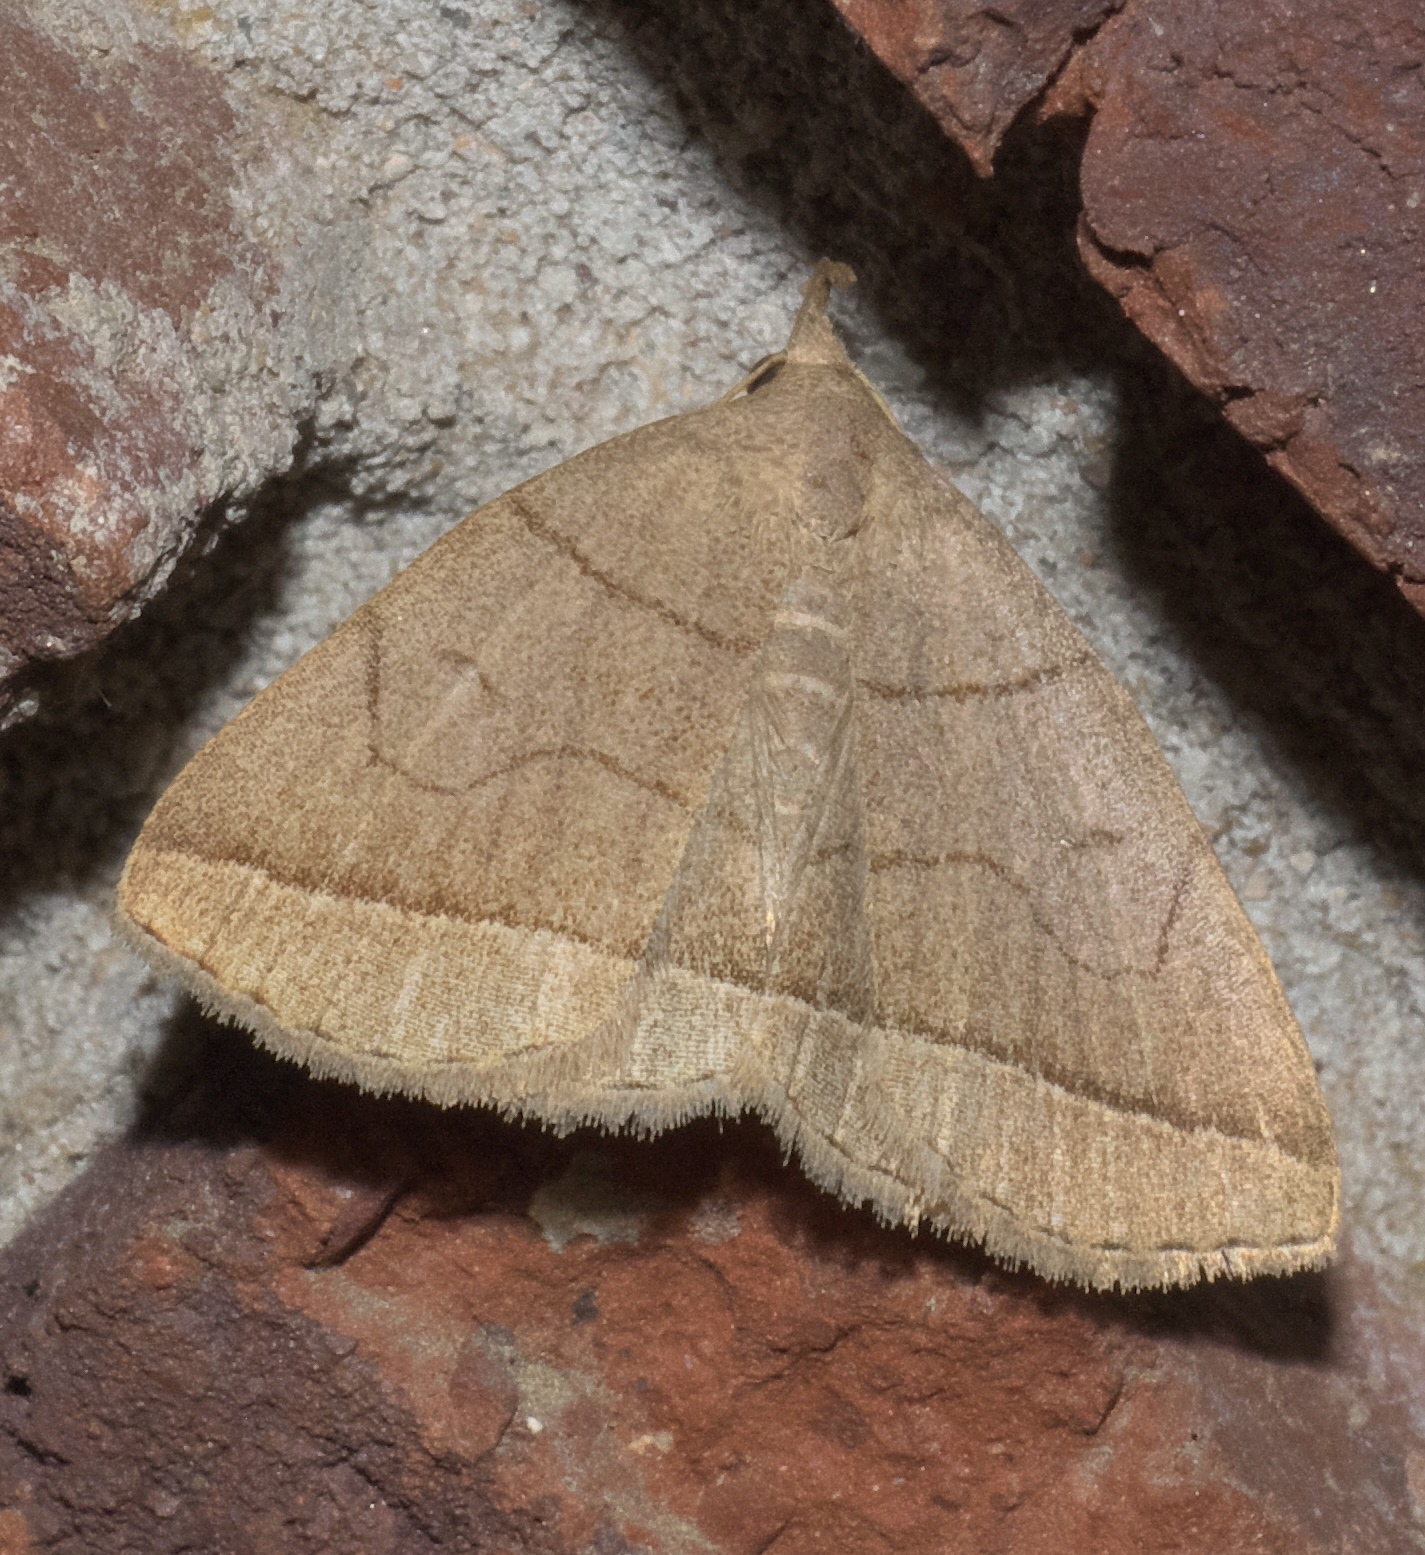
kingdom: Animalia
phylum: Arthropoda
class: Insecta
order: Lepidoptera
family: Erebidae
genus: Zanclognatha
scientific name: Zanclognatha cruralis
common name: Early fan-foot
